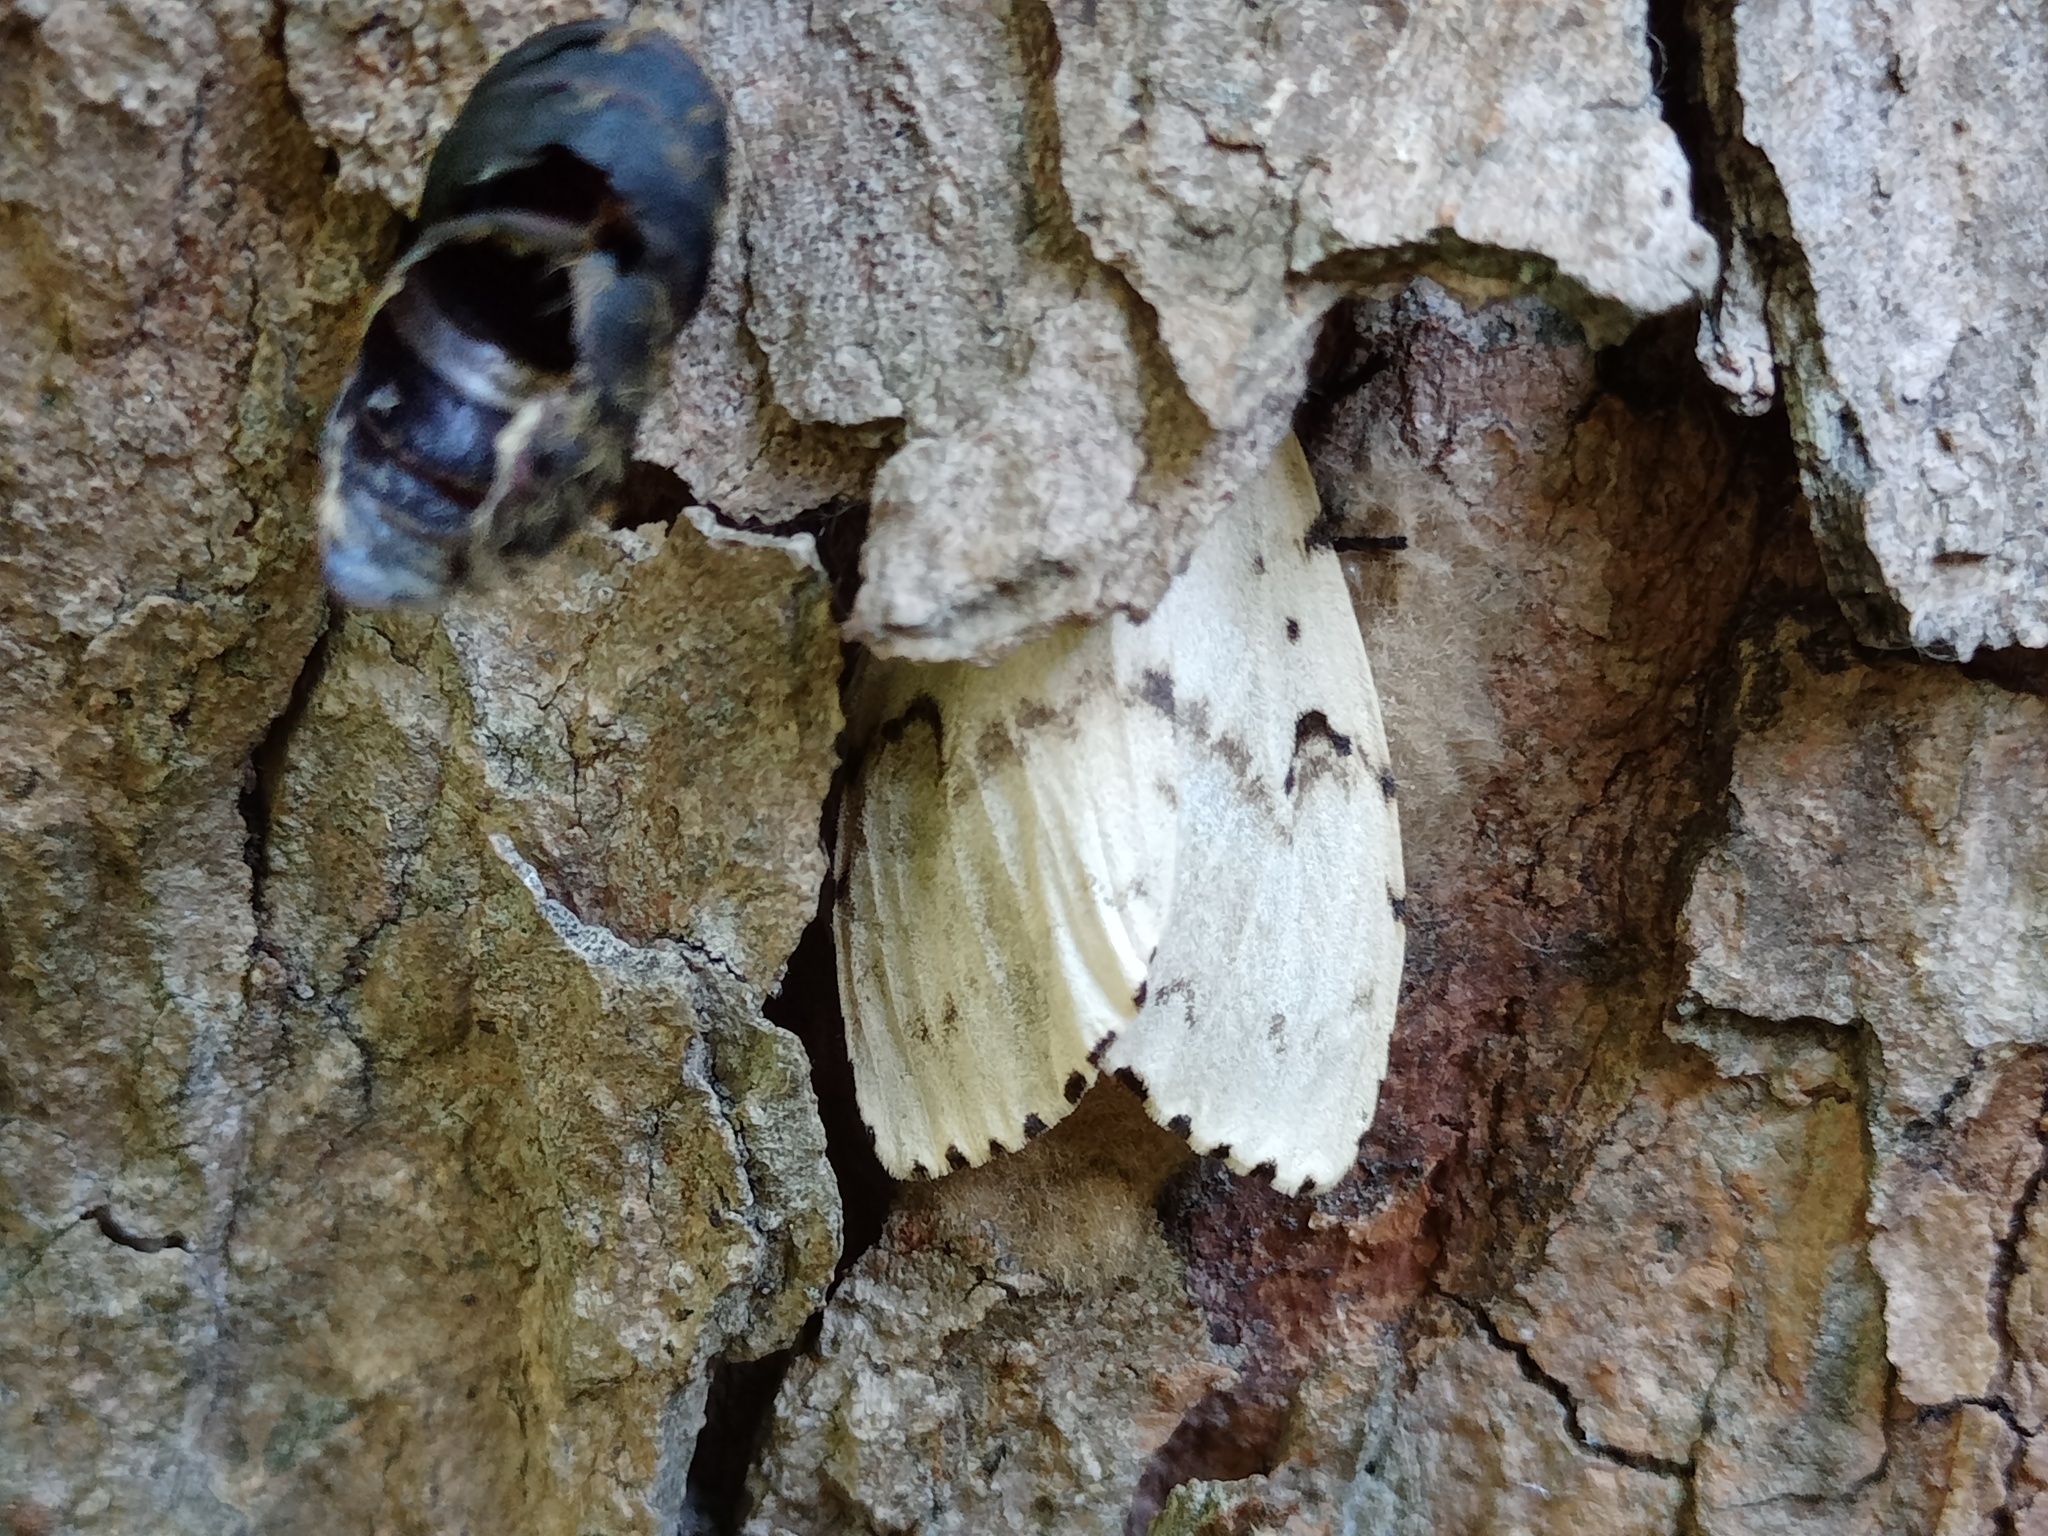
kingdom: Animalia
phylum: Arthropoda
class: Insecta
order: Lepidoptera
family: Erebidae
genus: Lymantria
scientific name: Lymantria dispar
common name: Gypsy moth
